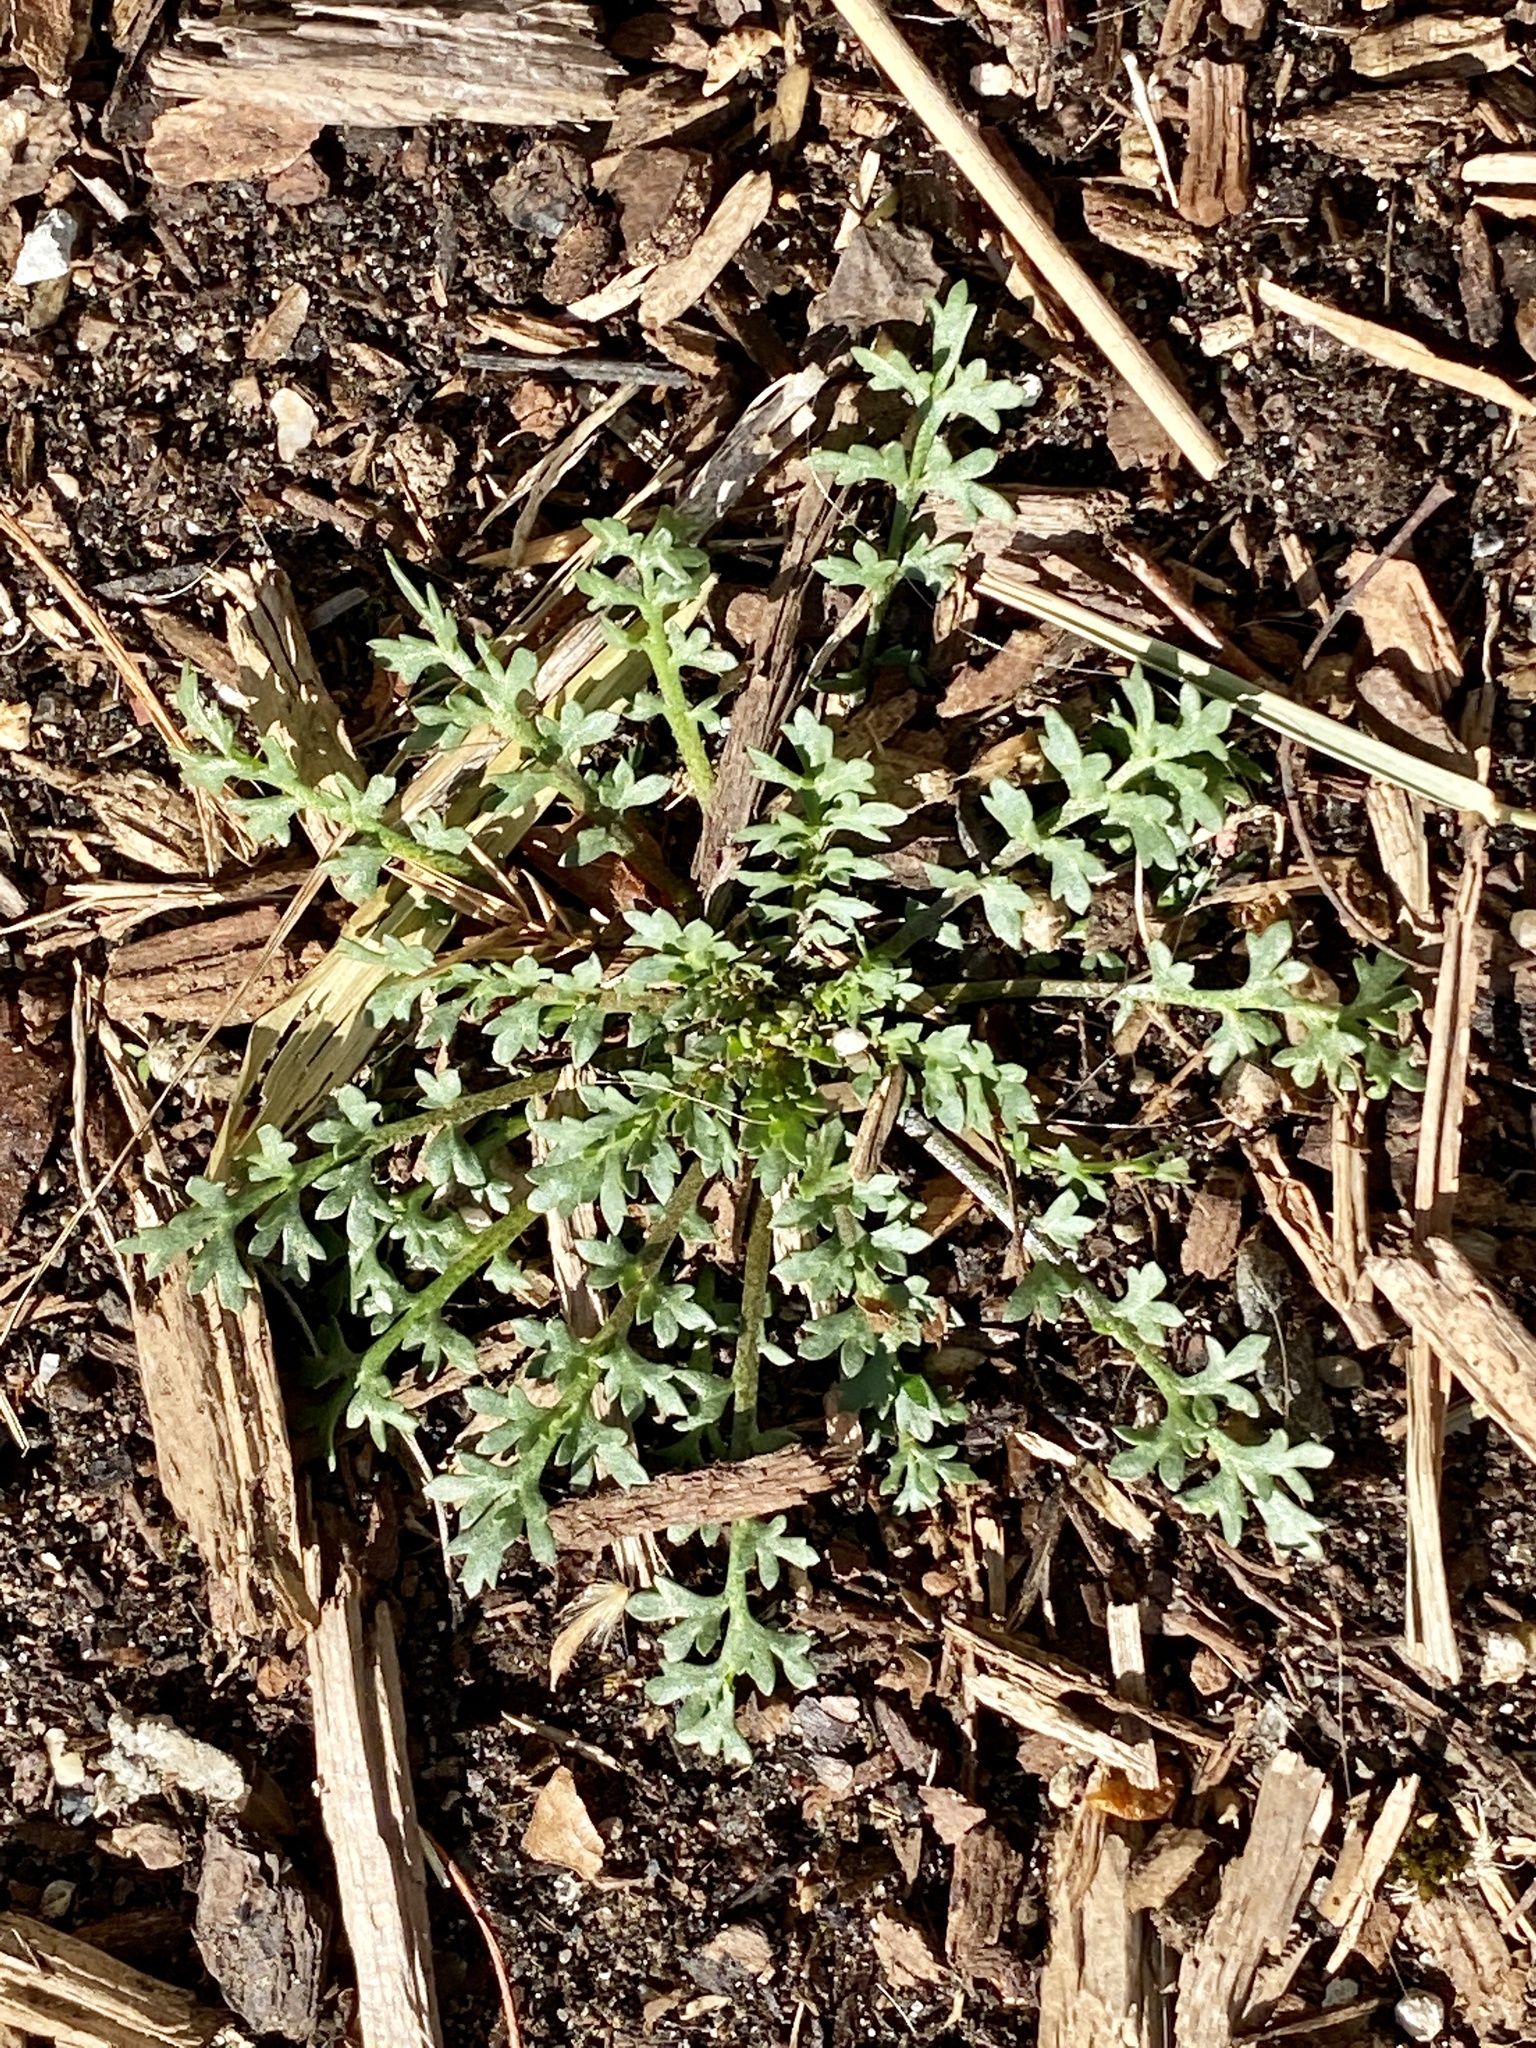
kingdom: Plantae
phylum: Tracheophyta
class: Magnoliopsida
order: Brassicales
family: Brassicaceae
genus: Lepidium
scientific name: Lepidium didymum
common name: Lesser swinecress
